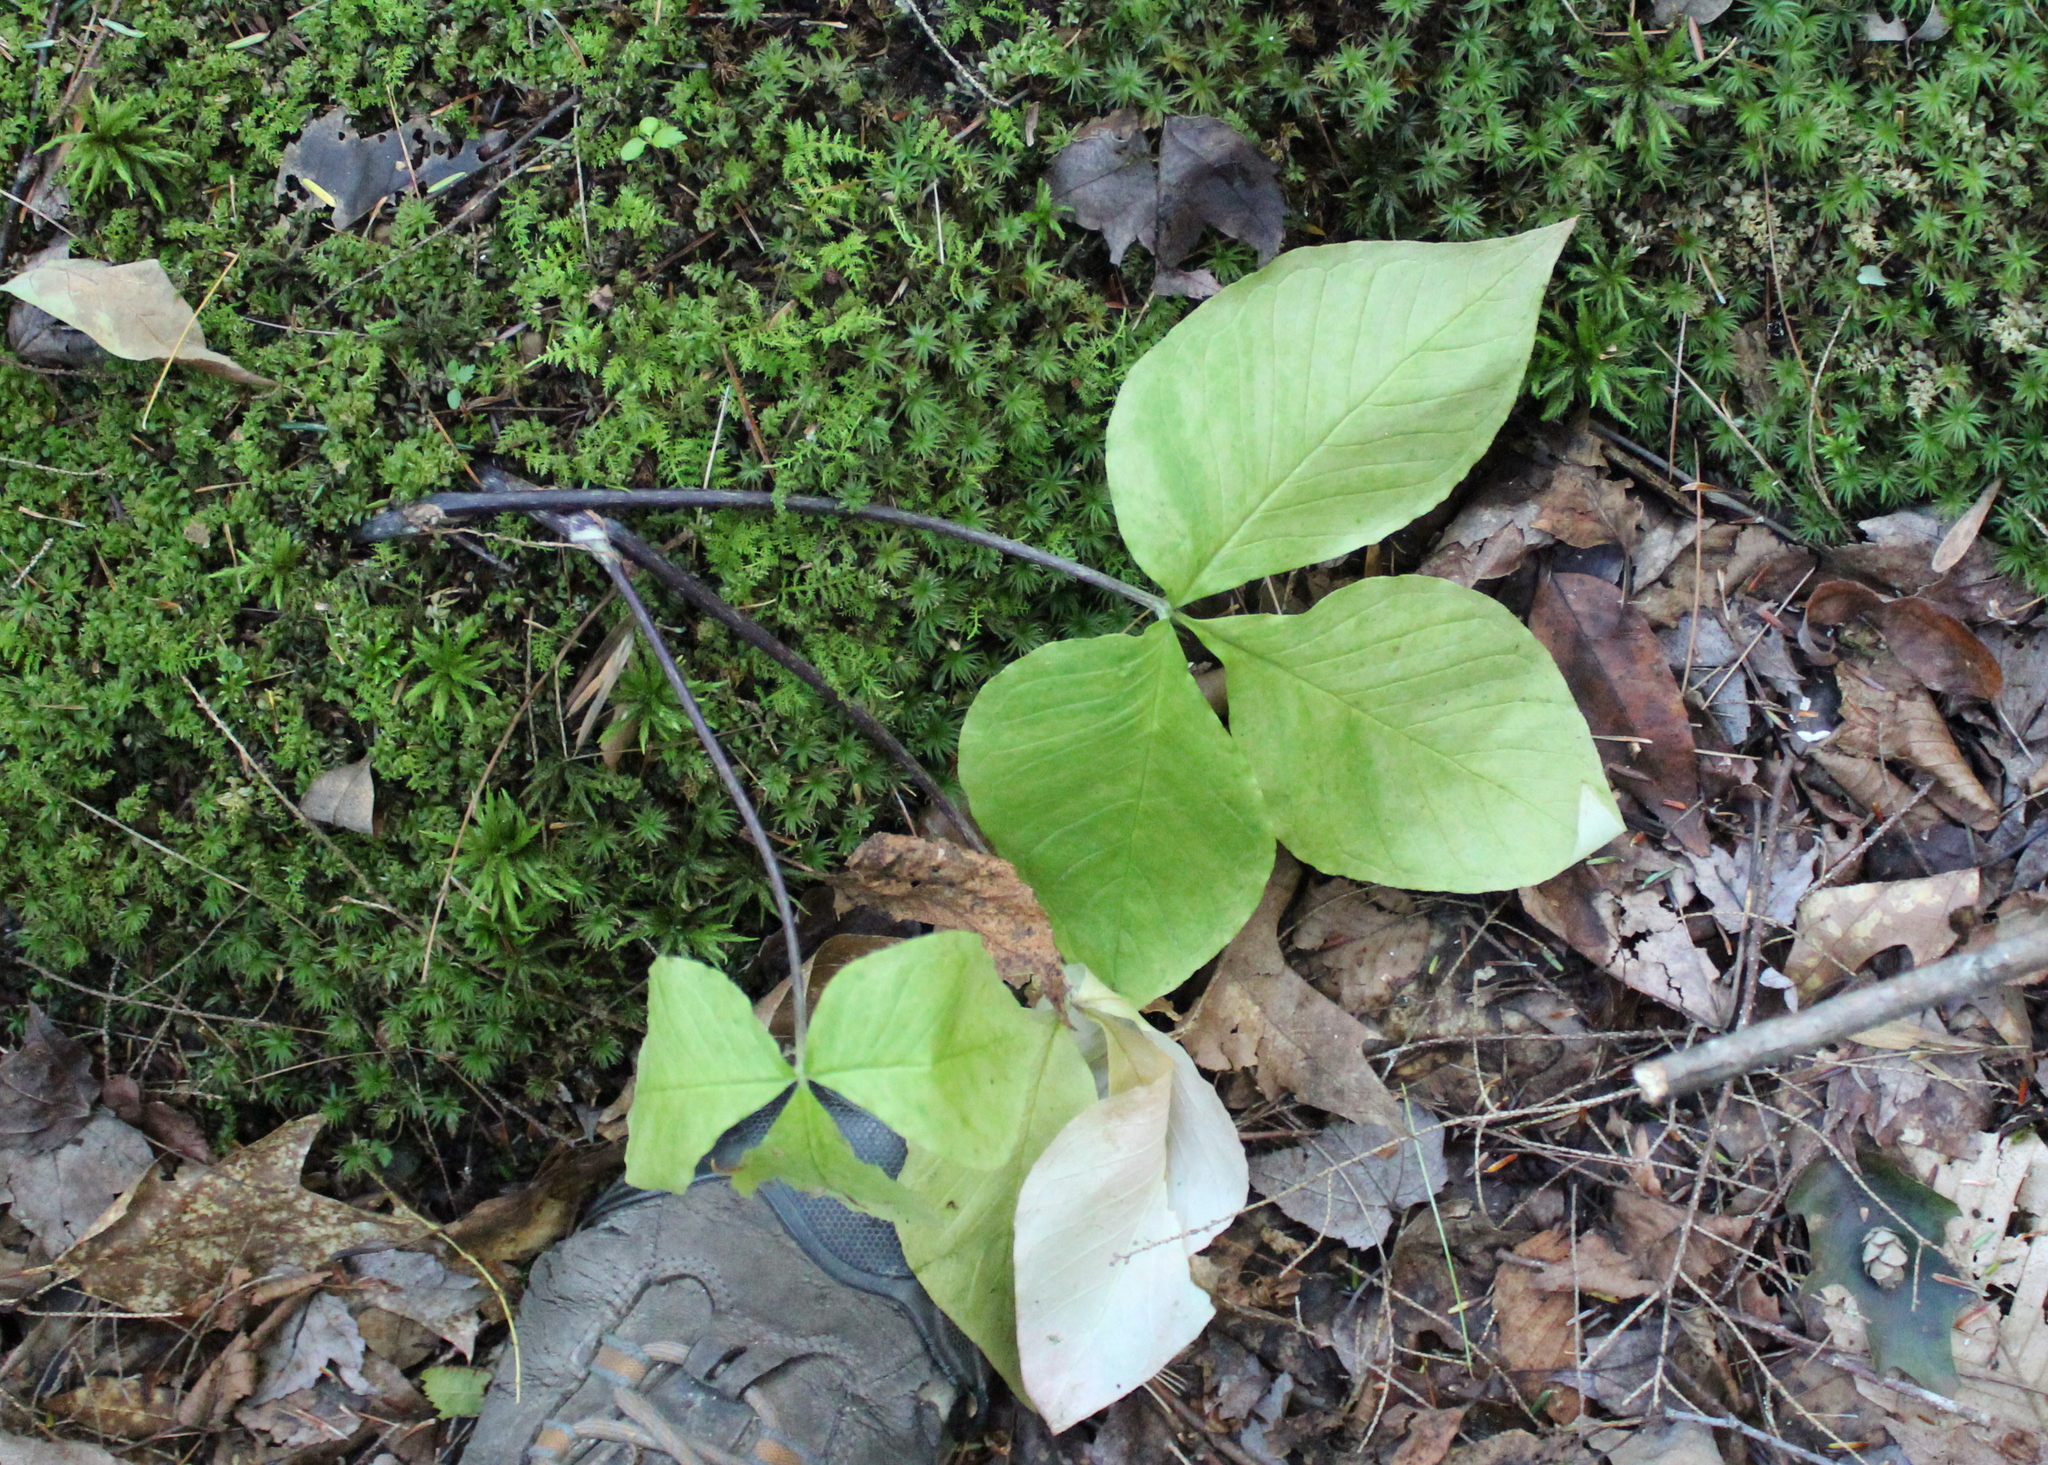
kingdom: Plantae
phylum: Tracheophyta
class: Liliopsida
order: Alismatales
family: Araceae
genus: Arisaema
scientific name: Arisaema triphyllum
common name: Jack-in-the-pulpit
